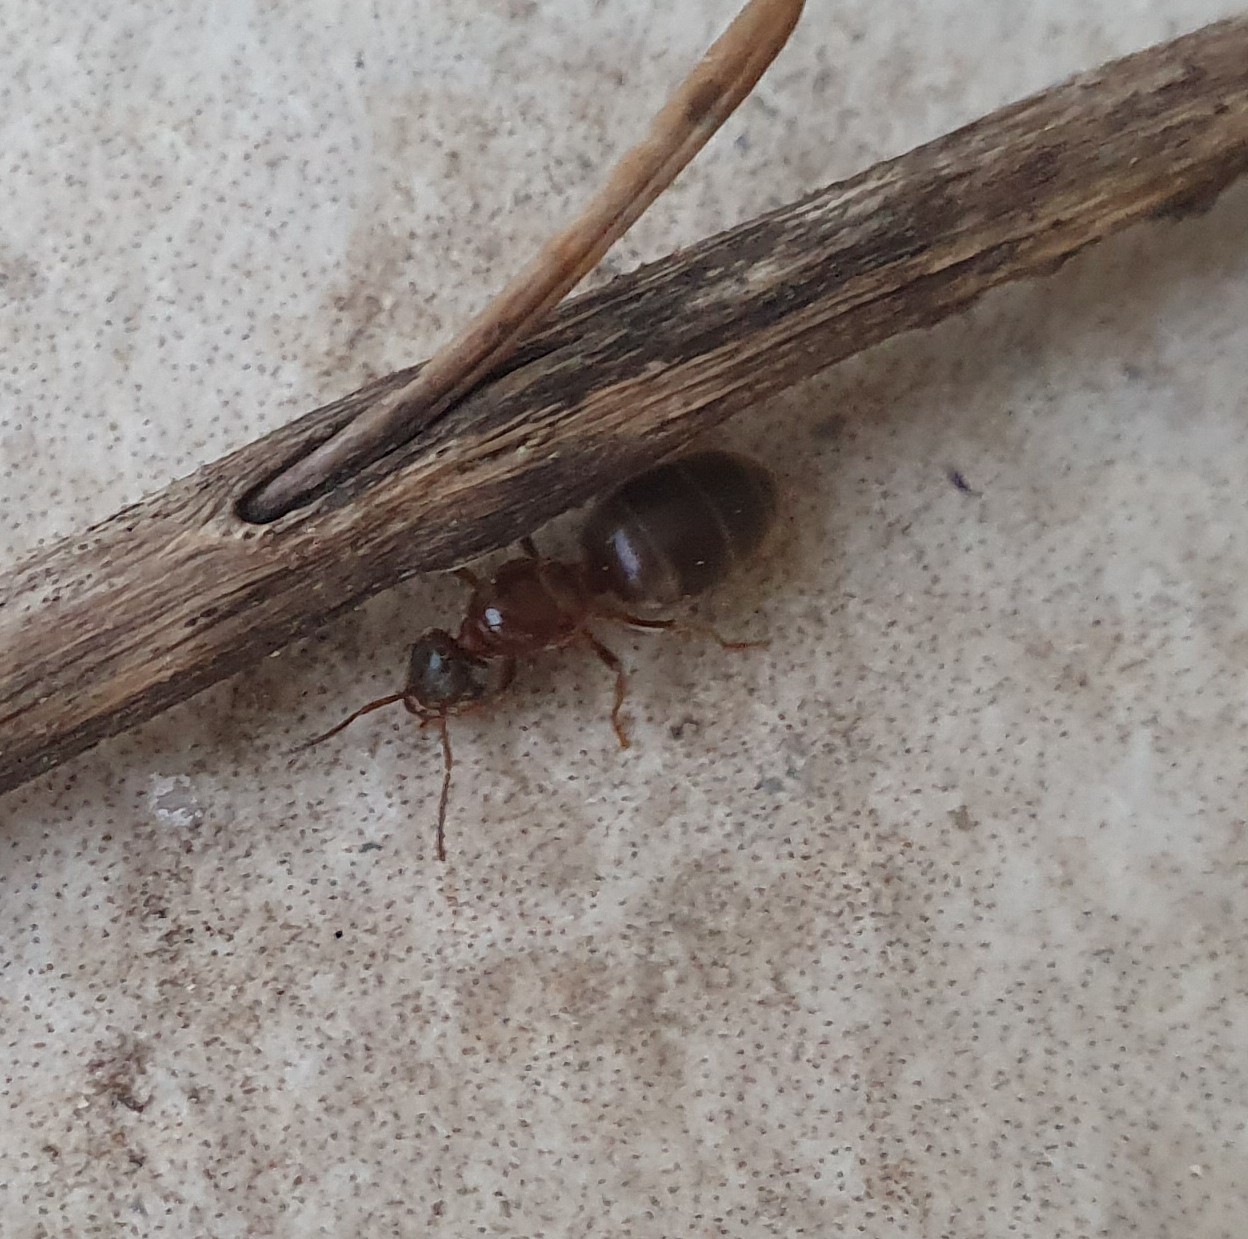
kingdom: Animalia
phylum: Arthropoda
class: Insecta
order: Hymenoptera
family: Formicidae
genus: Lasius
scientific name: Lasius emarginatus
